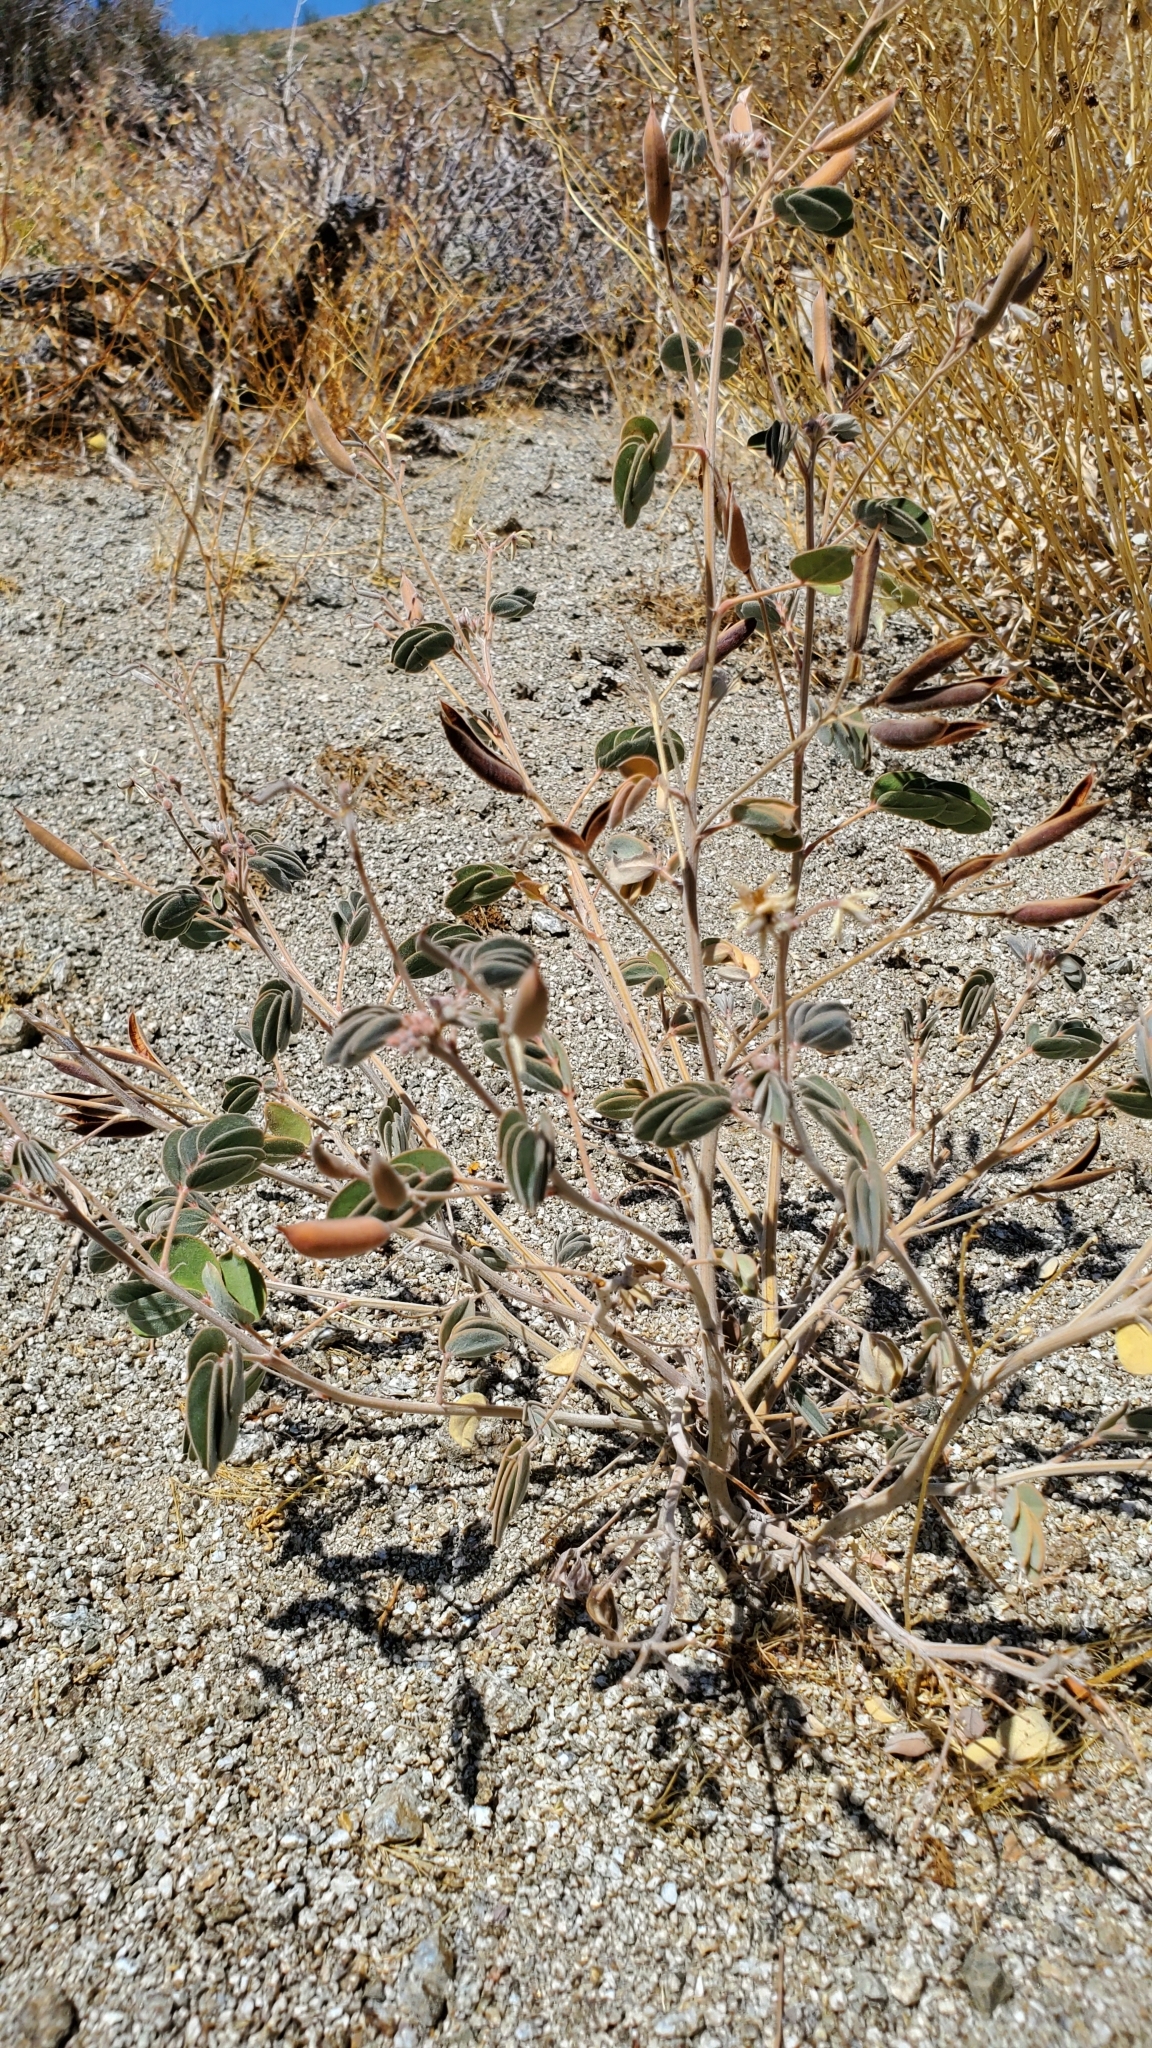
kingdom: Plantae
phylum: Tracheophyta
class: Magnoliopsida
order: Fabales
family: Fabaceae
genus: Senna
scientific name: Senna covesii
